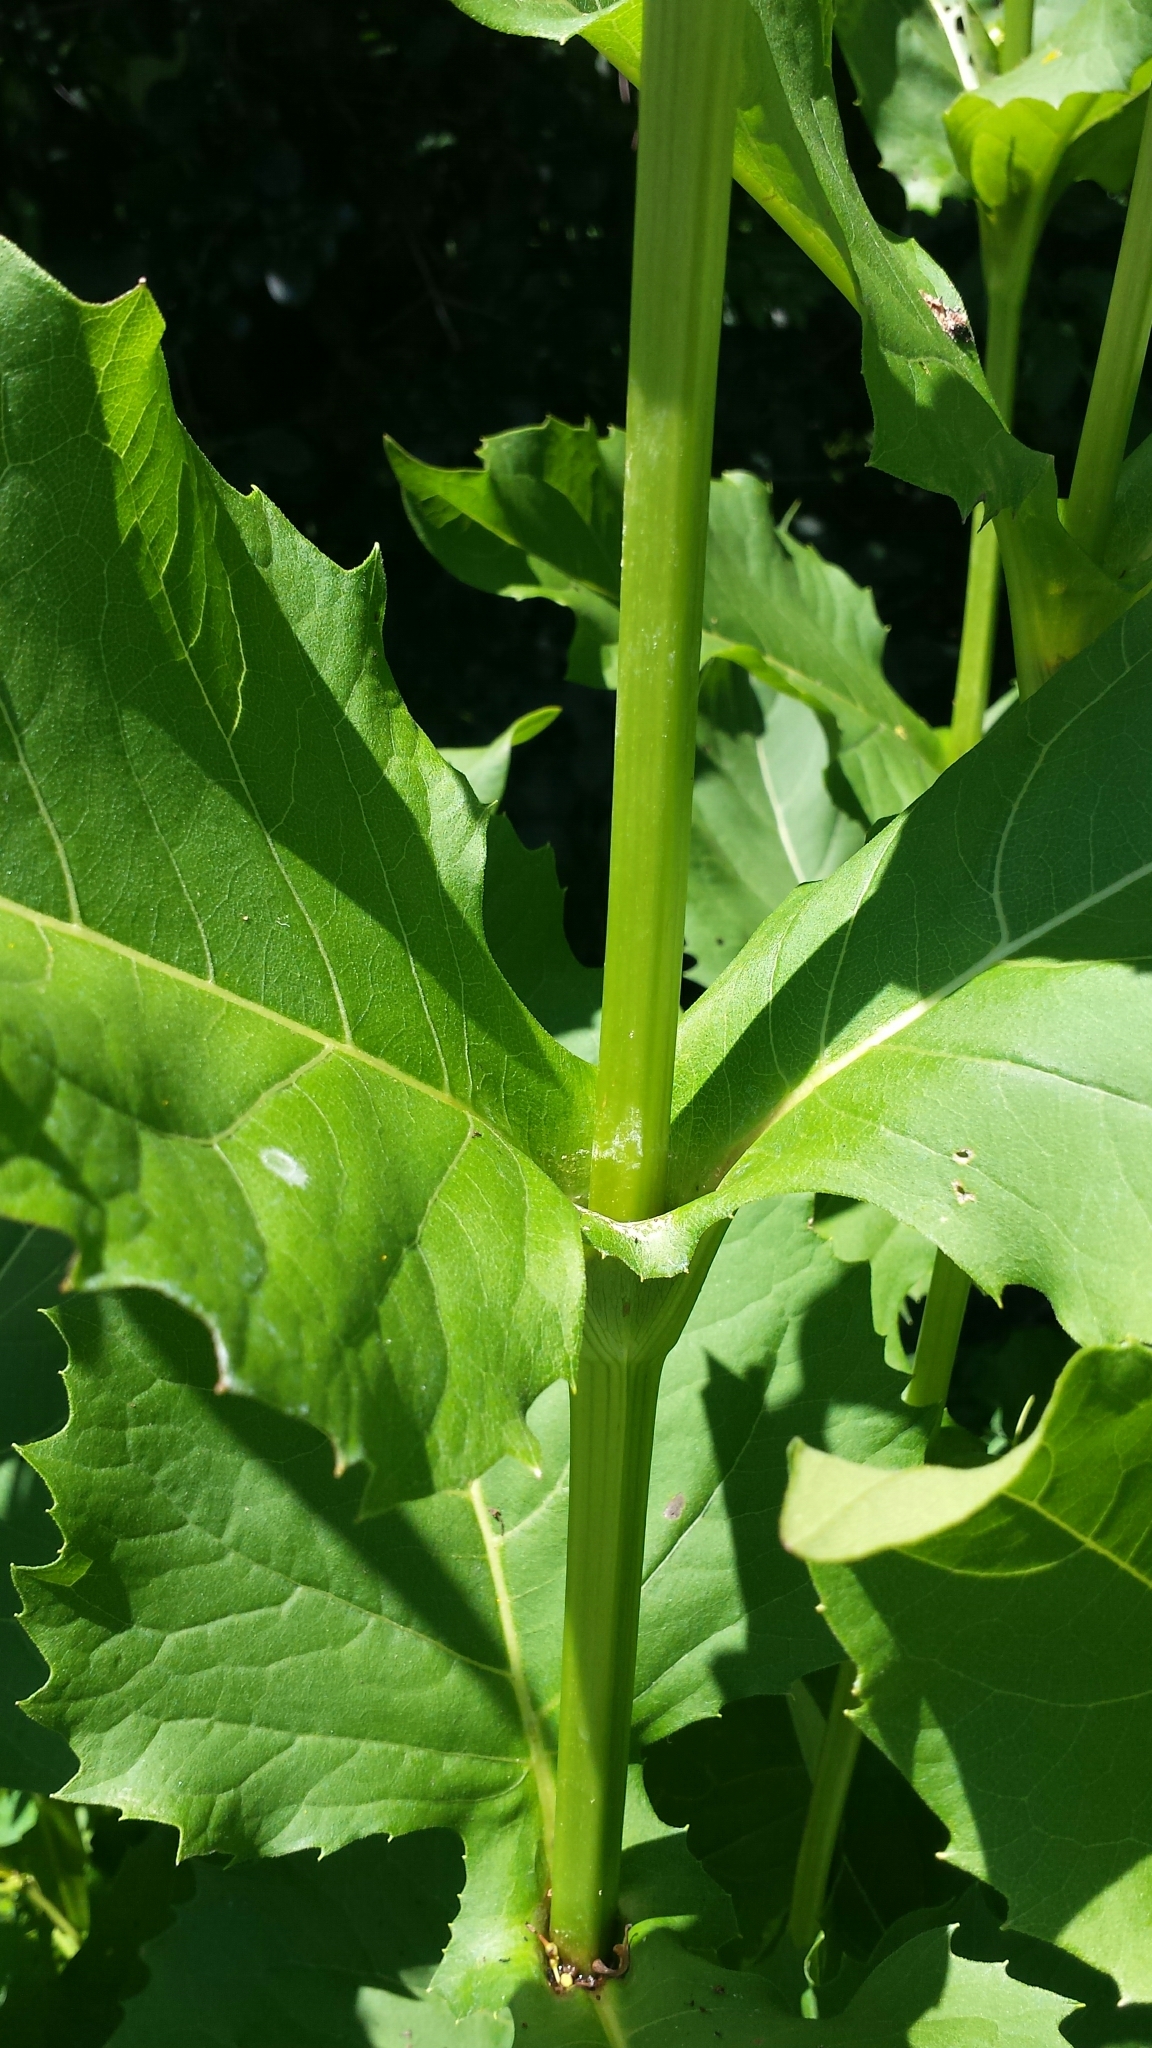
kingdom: Plantae
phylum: Tracheophyta
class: Magnoliopsida
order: Asterales
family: Asteraceae
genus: Silphium
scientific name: Silphium perfoliatum
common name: Cup-plant
